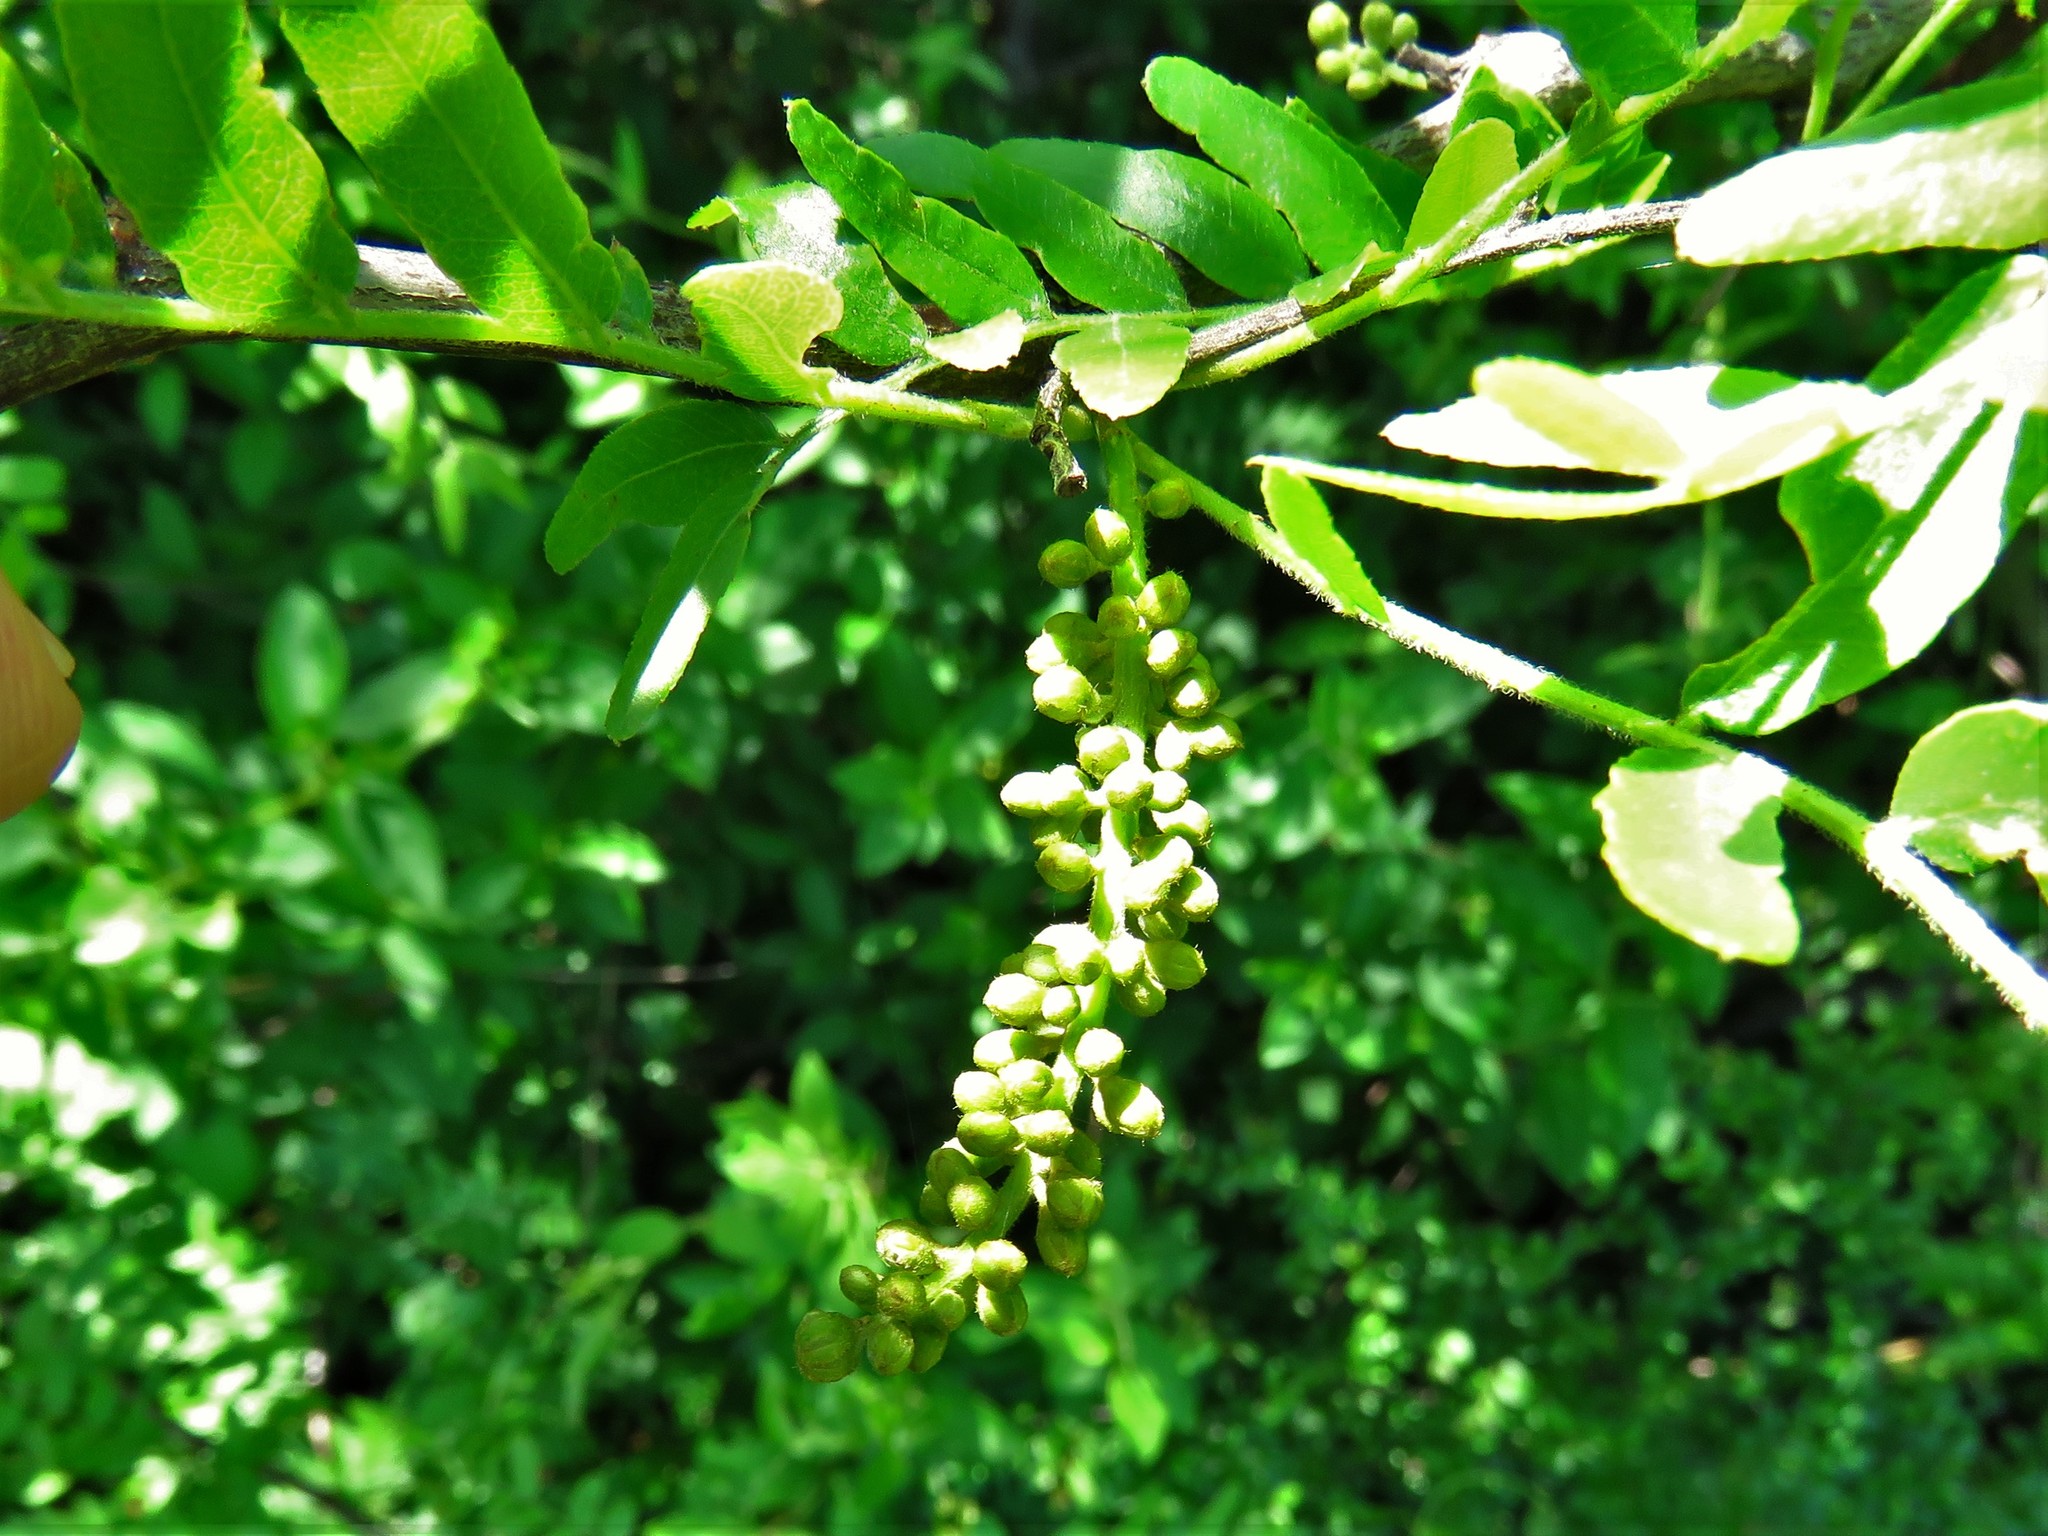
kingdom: Plantae
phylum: Tracheophyta
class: Magnoliopsida
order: Fabales
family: Fabaceae
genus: Gleditsia
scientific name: Gleditsia triacanthos
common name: Common honeylocust
